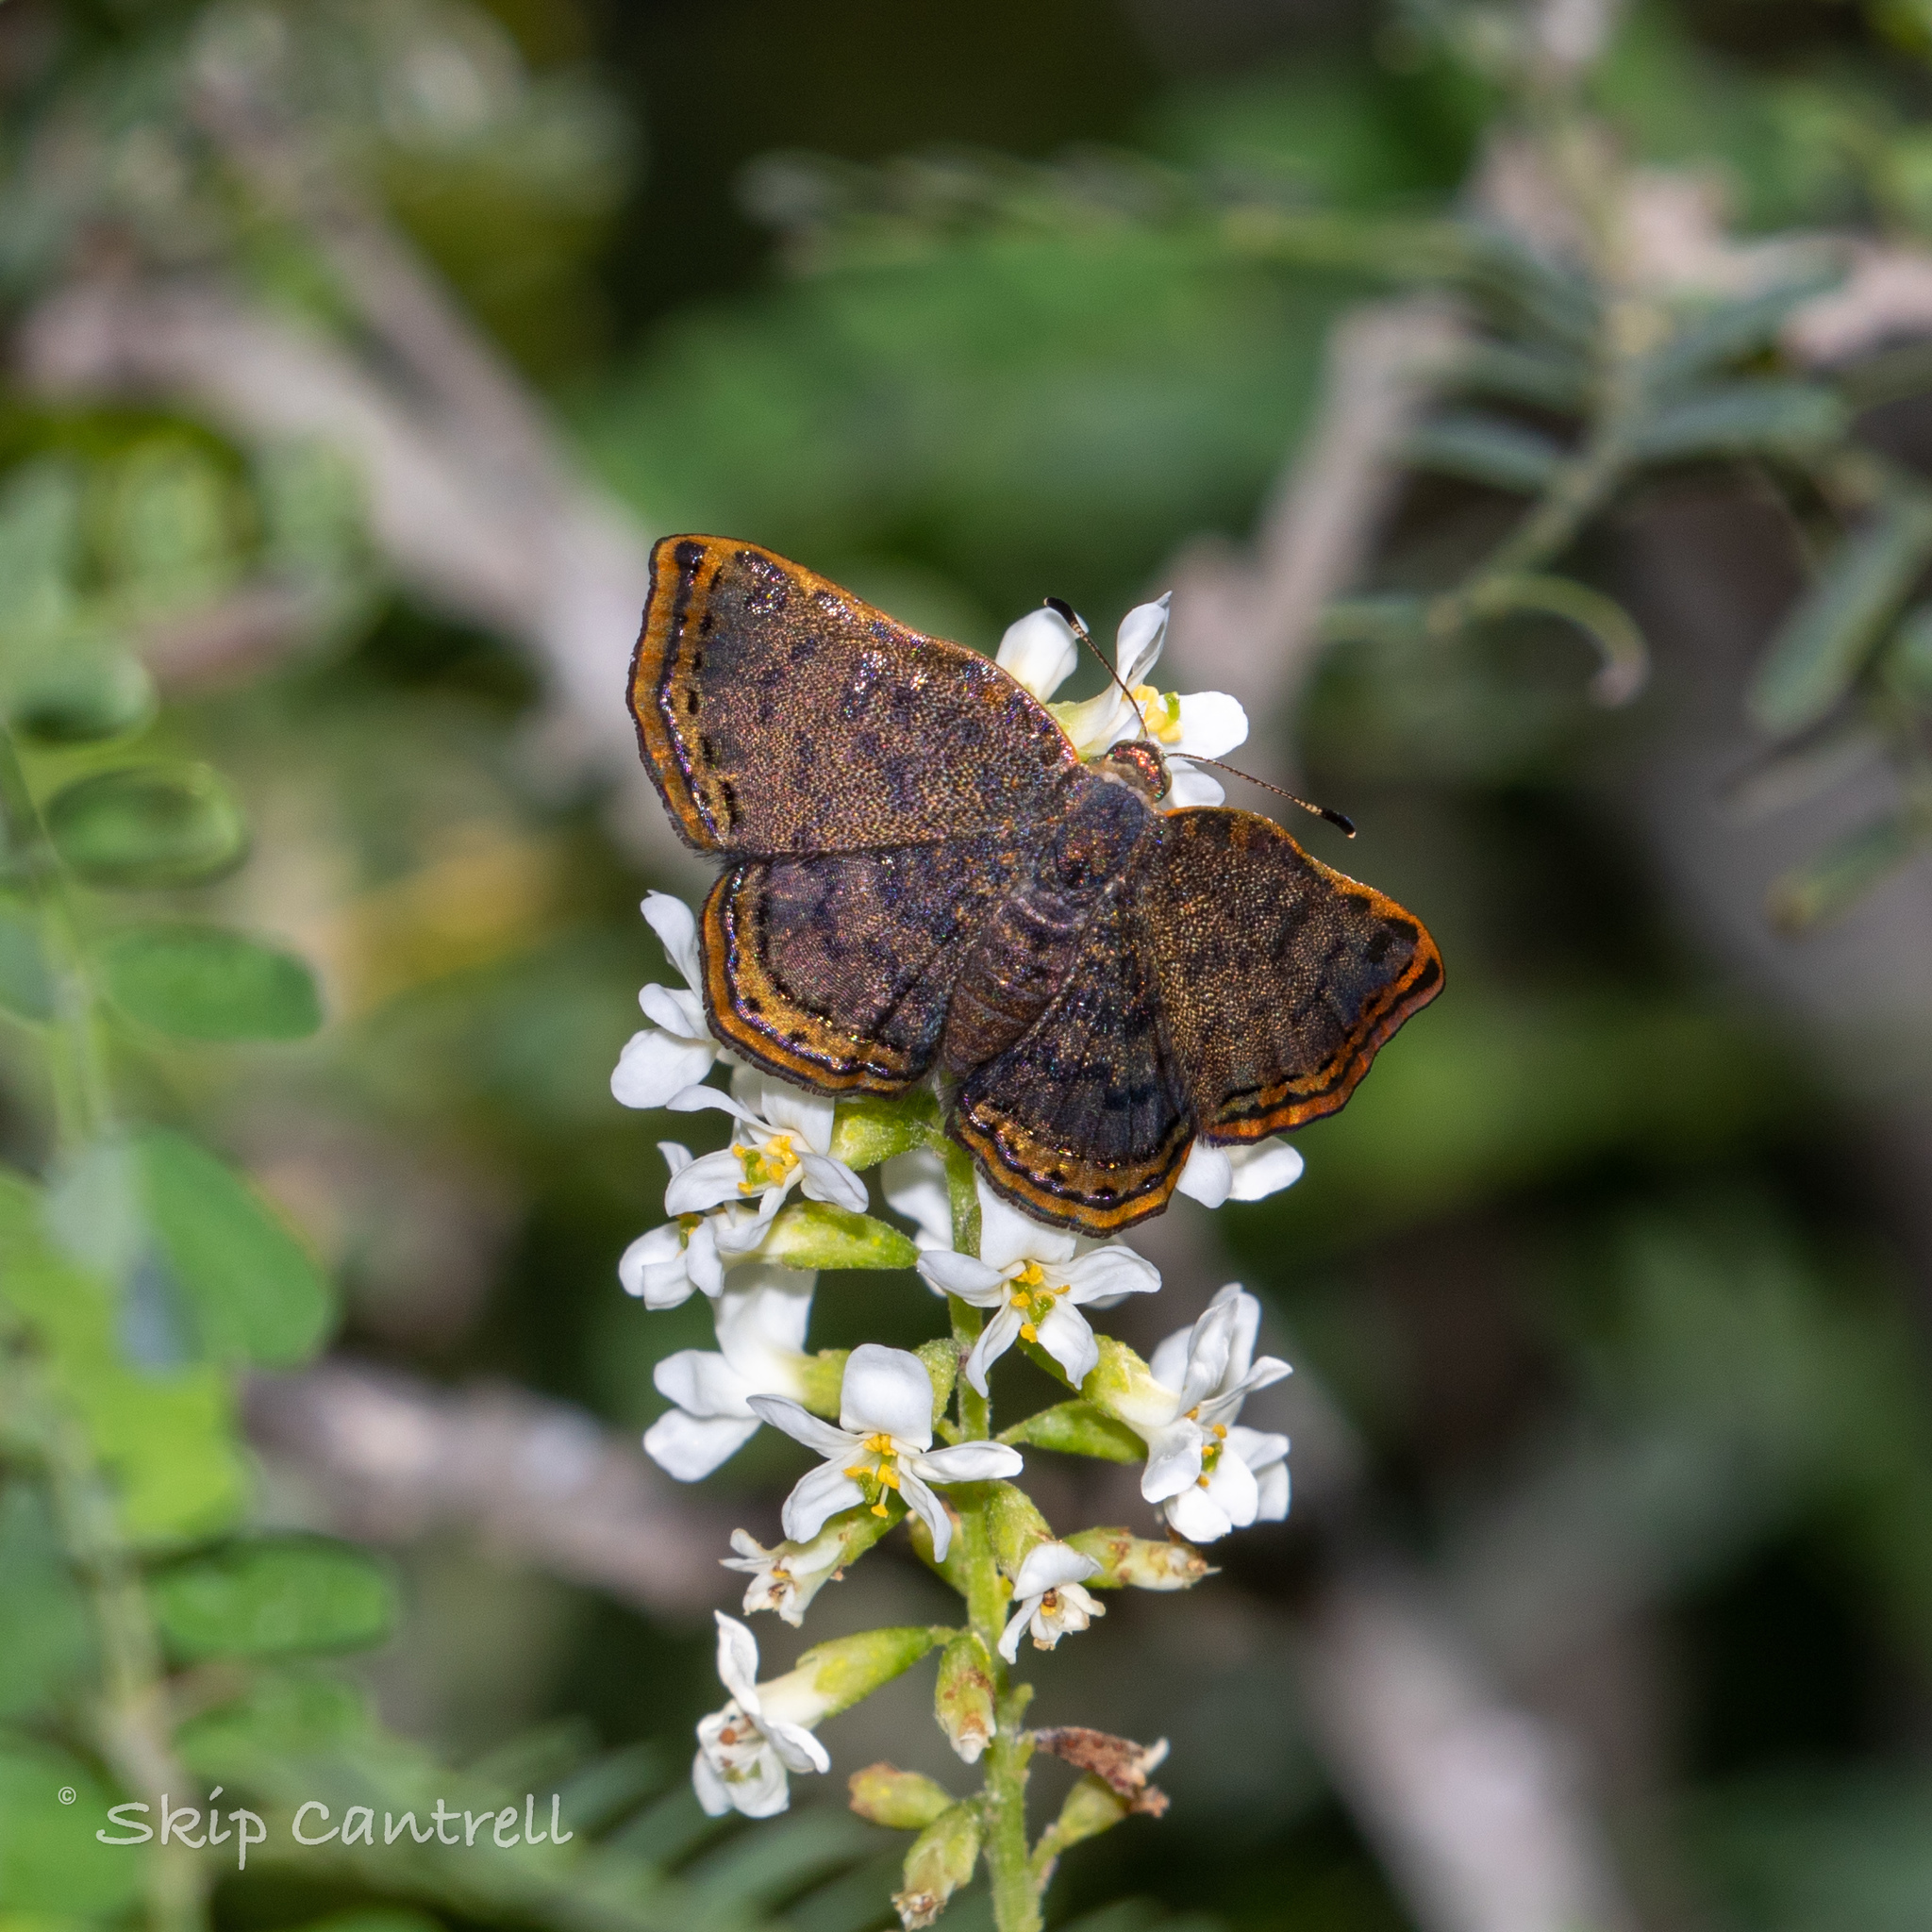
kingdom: Animalia
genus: Caria
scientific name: Caria ino
